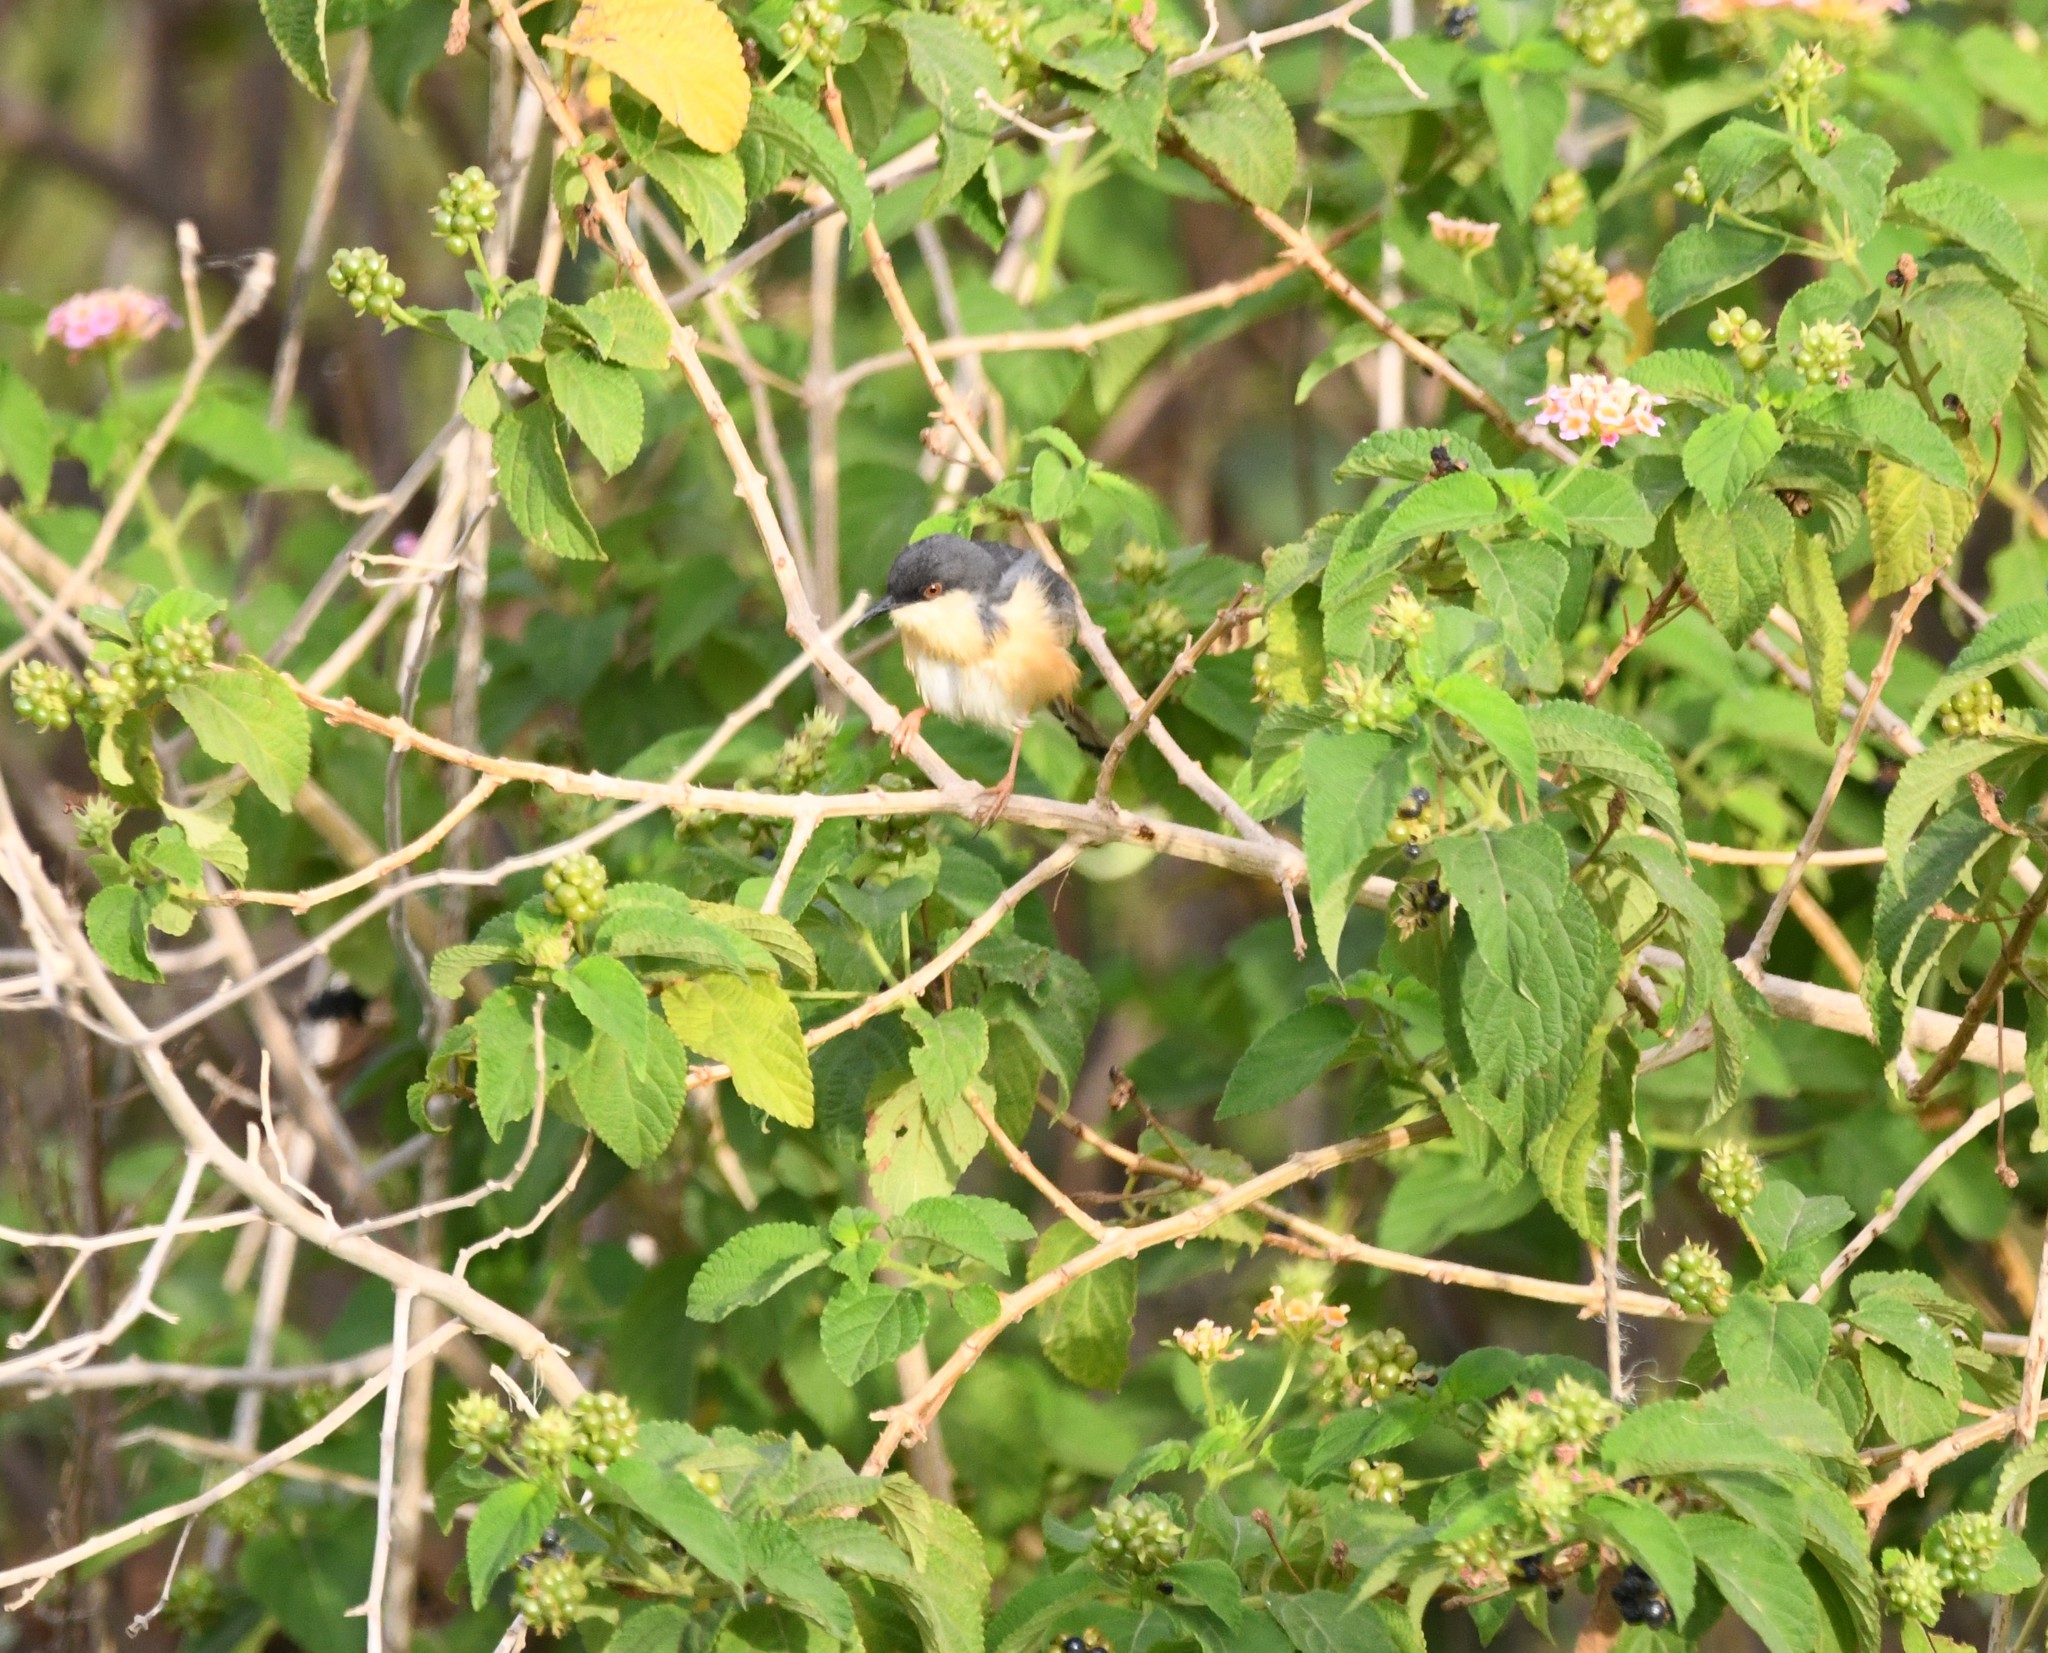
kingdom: Animalia
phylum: Chordata
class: Aves
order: Passeriformes
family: Cisticolidae
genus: Prinia
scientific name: Prinia socialis
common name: Ashy prinia
